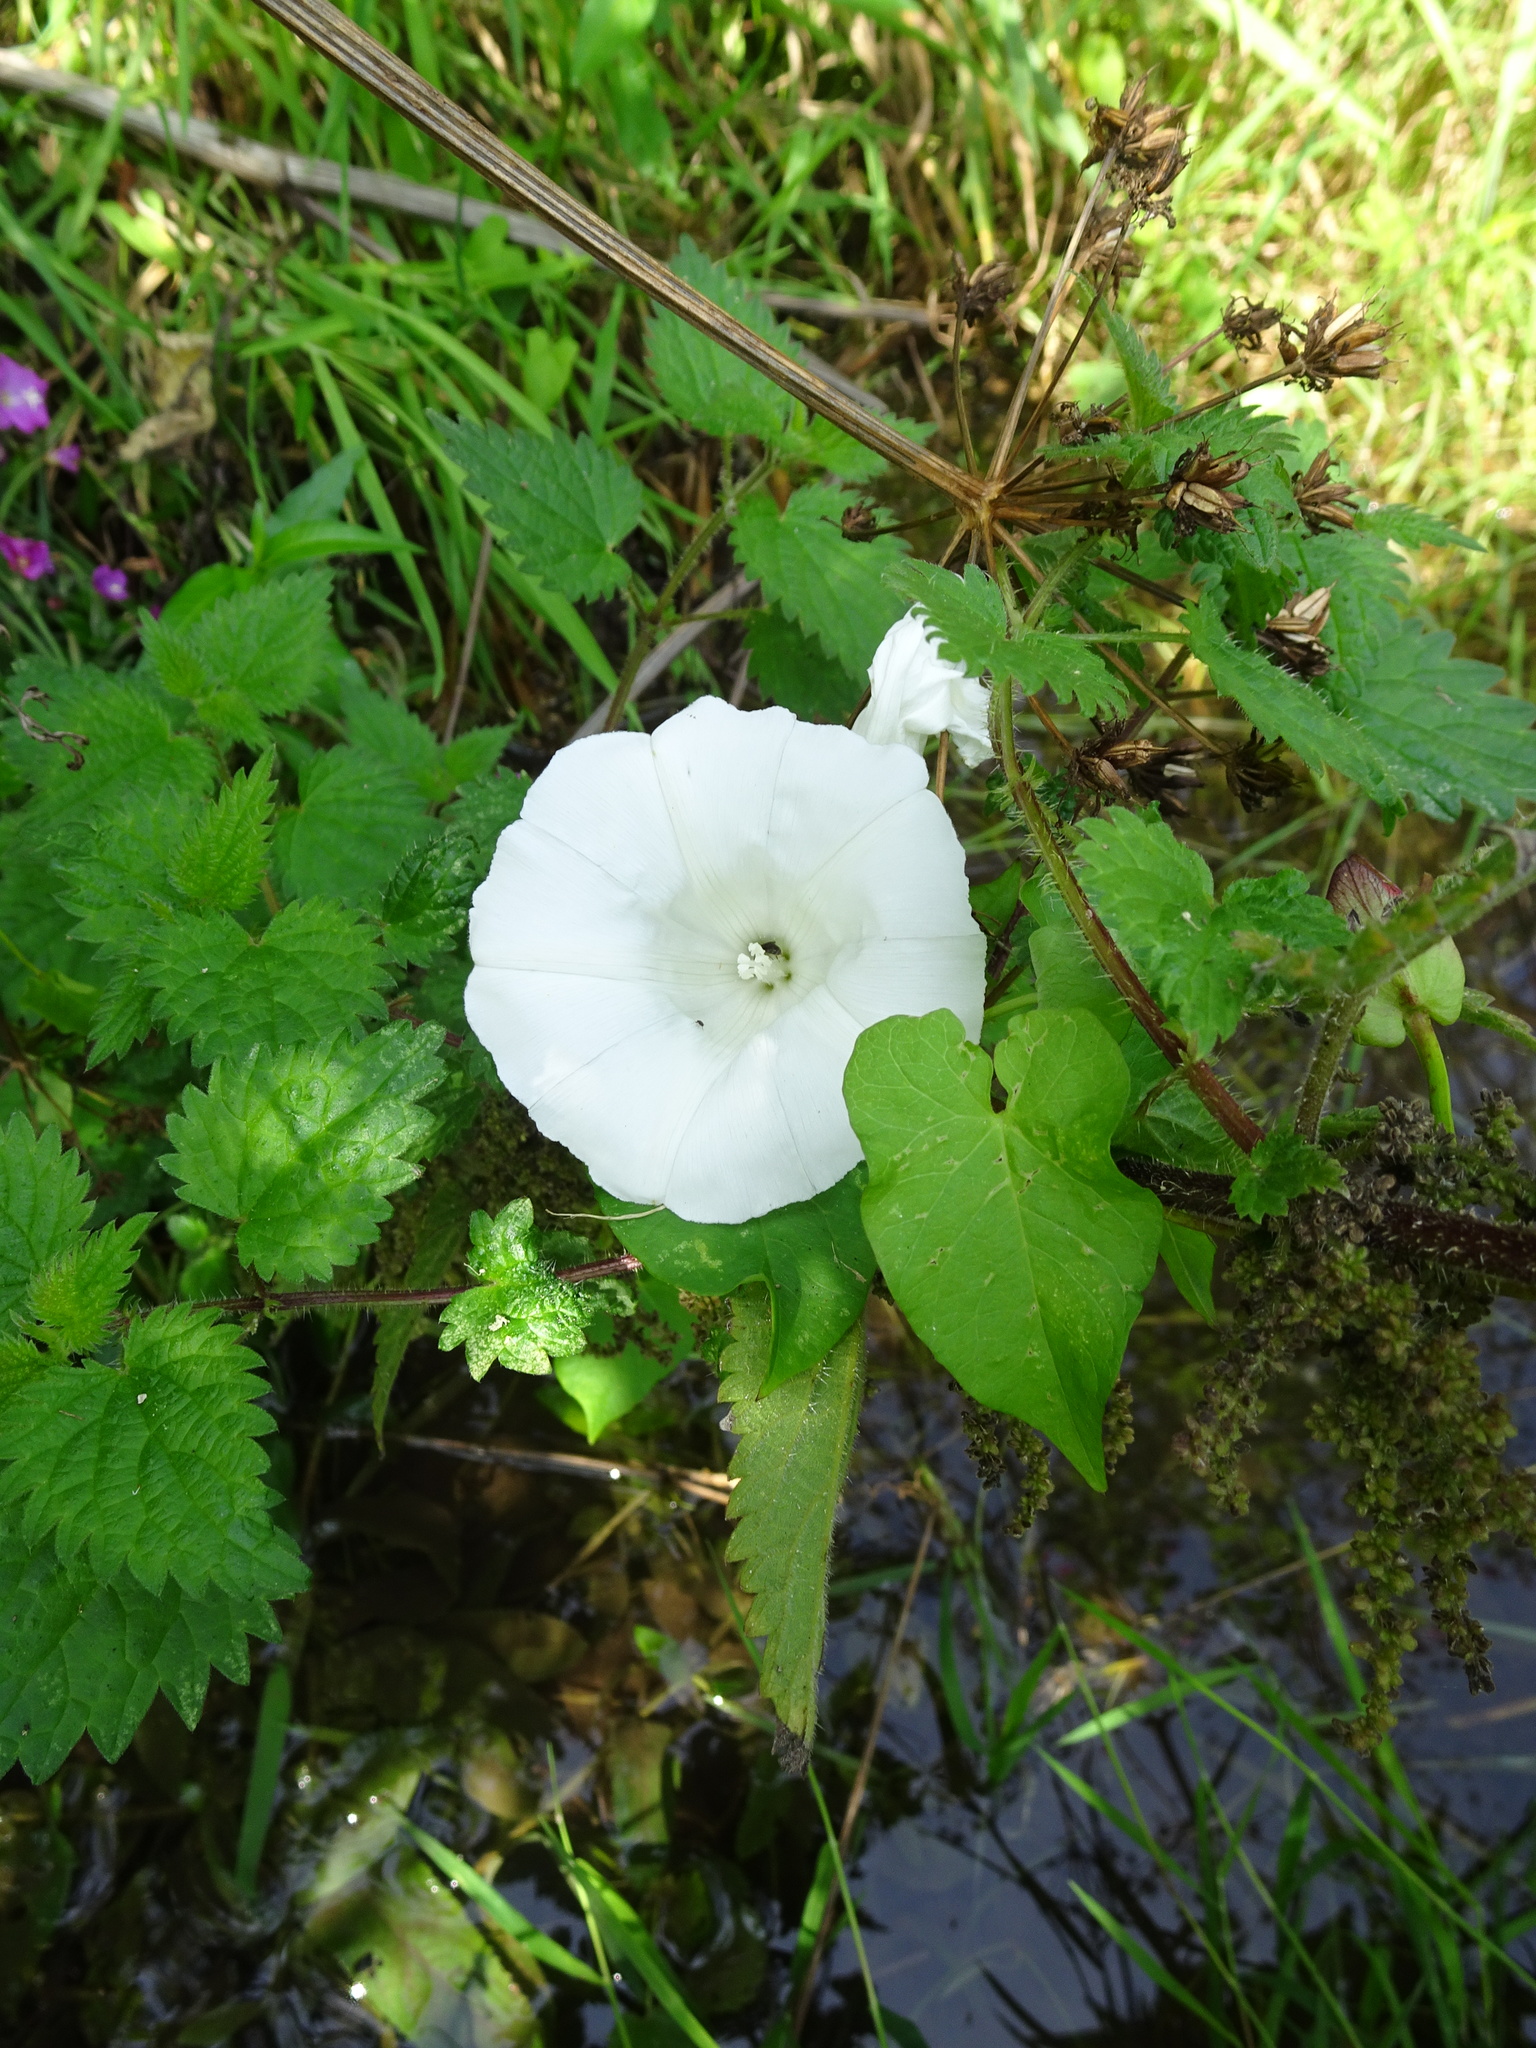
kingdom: Plantae
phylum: Tracheophyta
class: Magnoliopsida
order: Solanales
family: Convolvulaceae
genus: Calystegia
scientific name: Calystegia sepium
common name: Hedge bindweed
